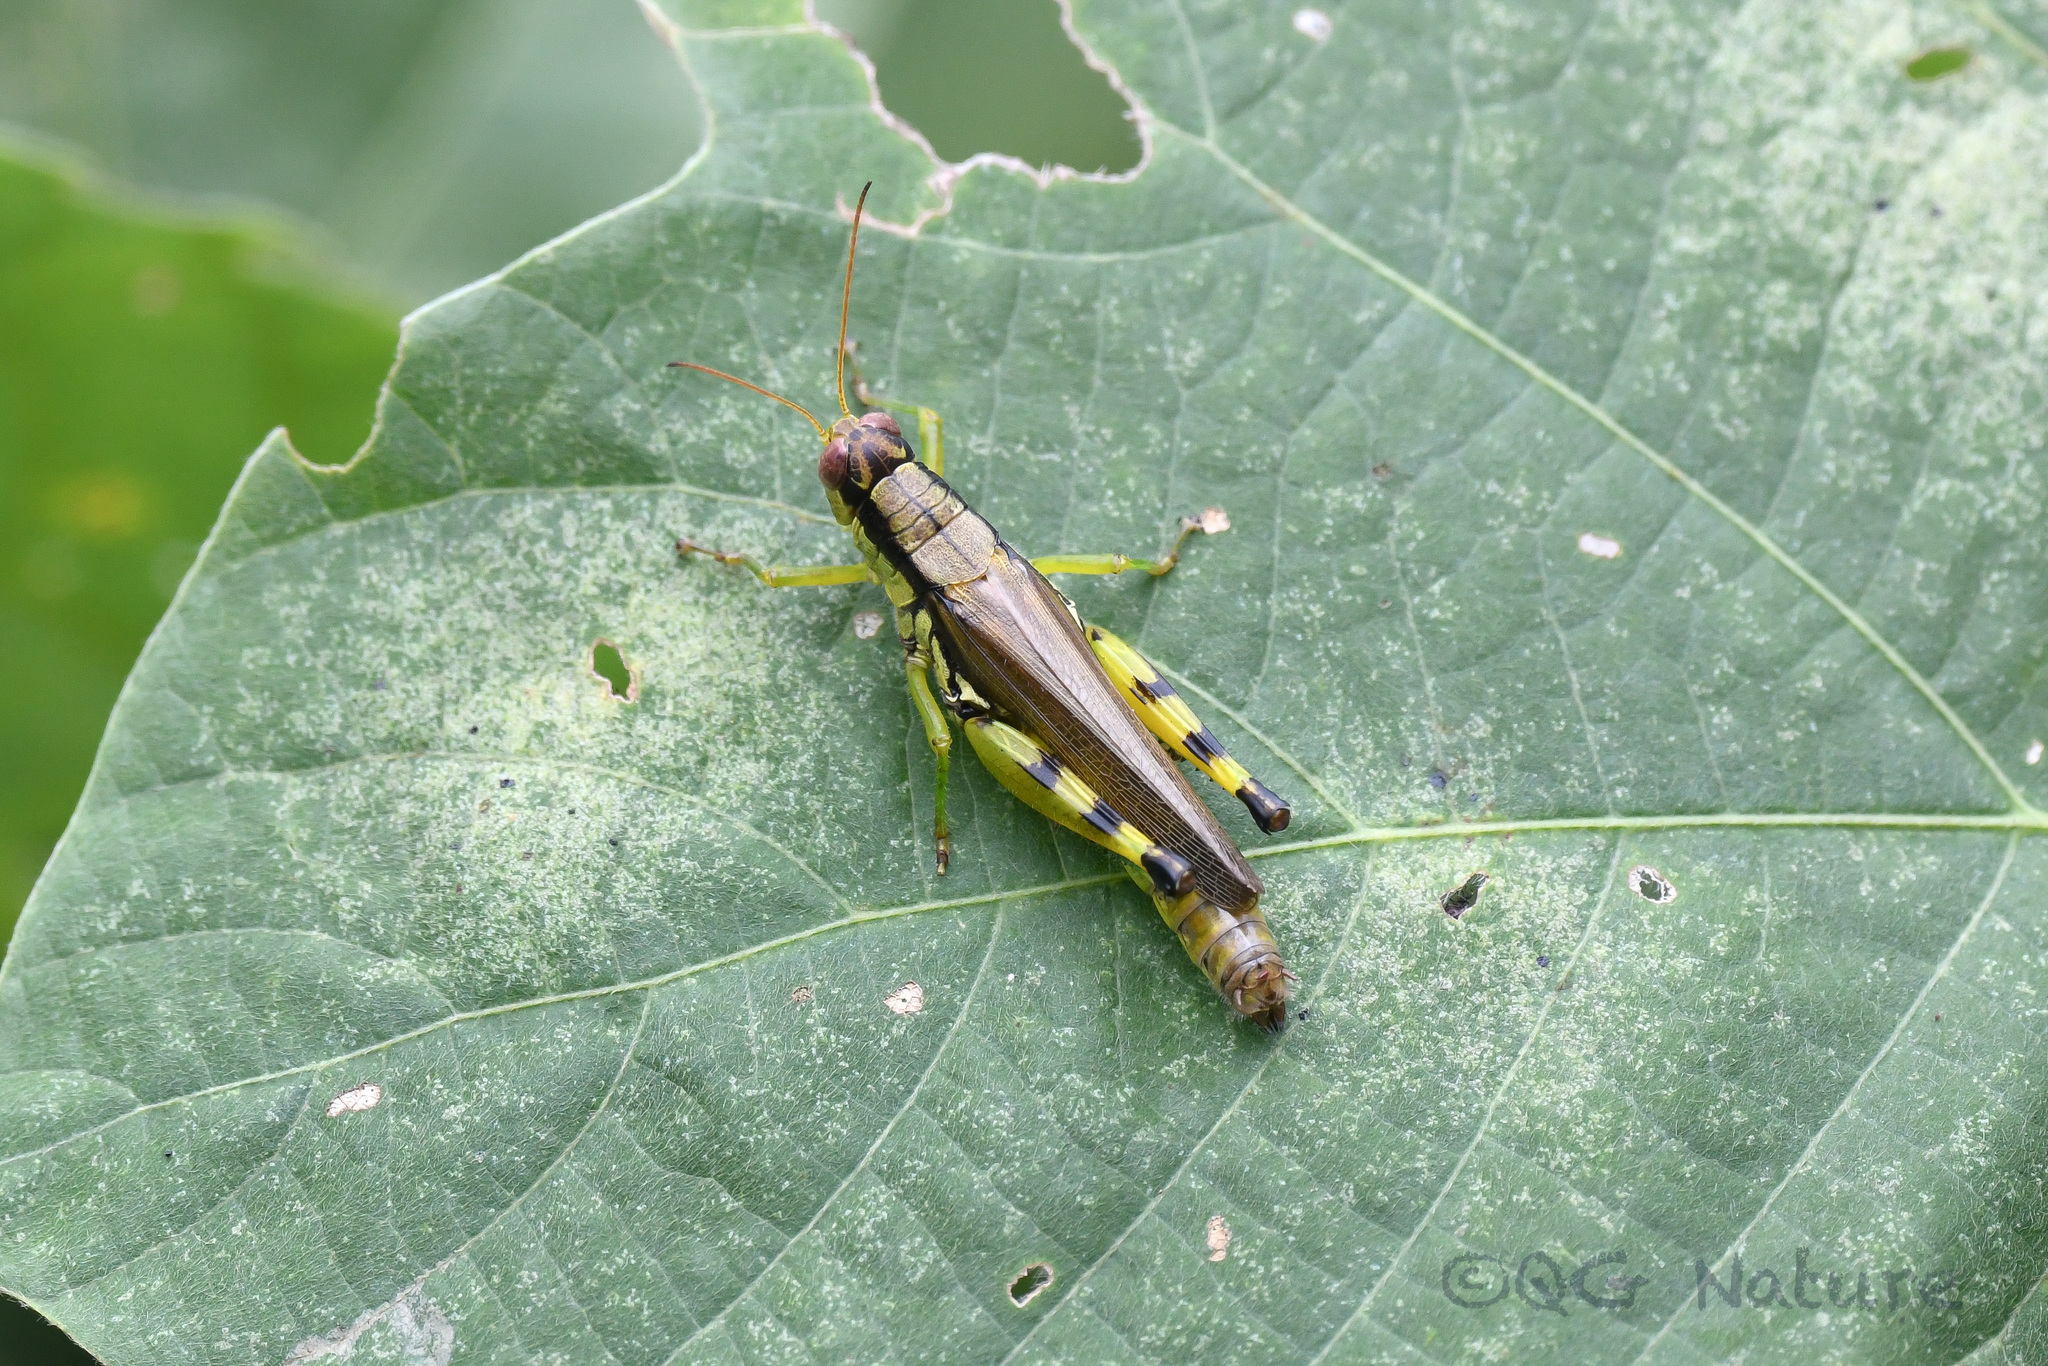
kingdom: Animalia
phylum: Arthropoda
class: Insecta
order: Orthoptera
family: Acrididae
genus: Fruhstorferiola
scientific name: Fruhstorferiola viridifemorata
